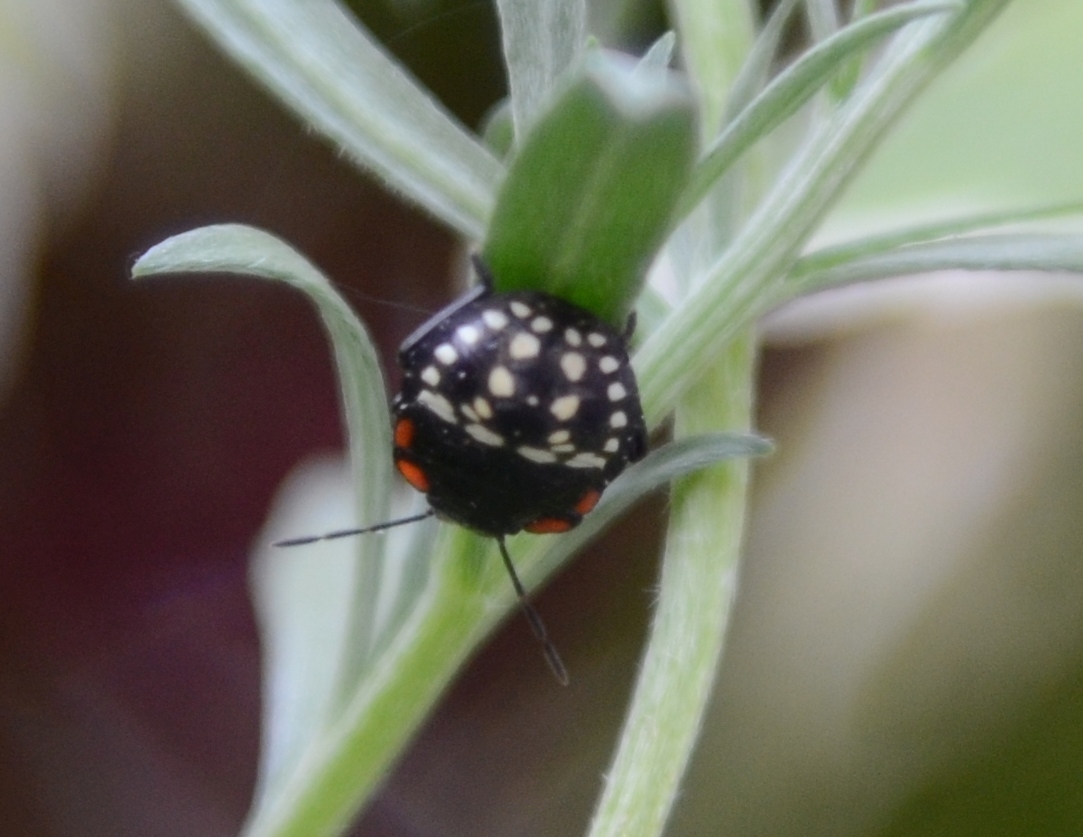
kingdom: Animalia
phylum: Arthropoda
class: Insecta
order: Hemiptera
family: Pentatomidae
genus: Nezara
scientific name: Nezara viridula
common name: Southern green stink bug
